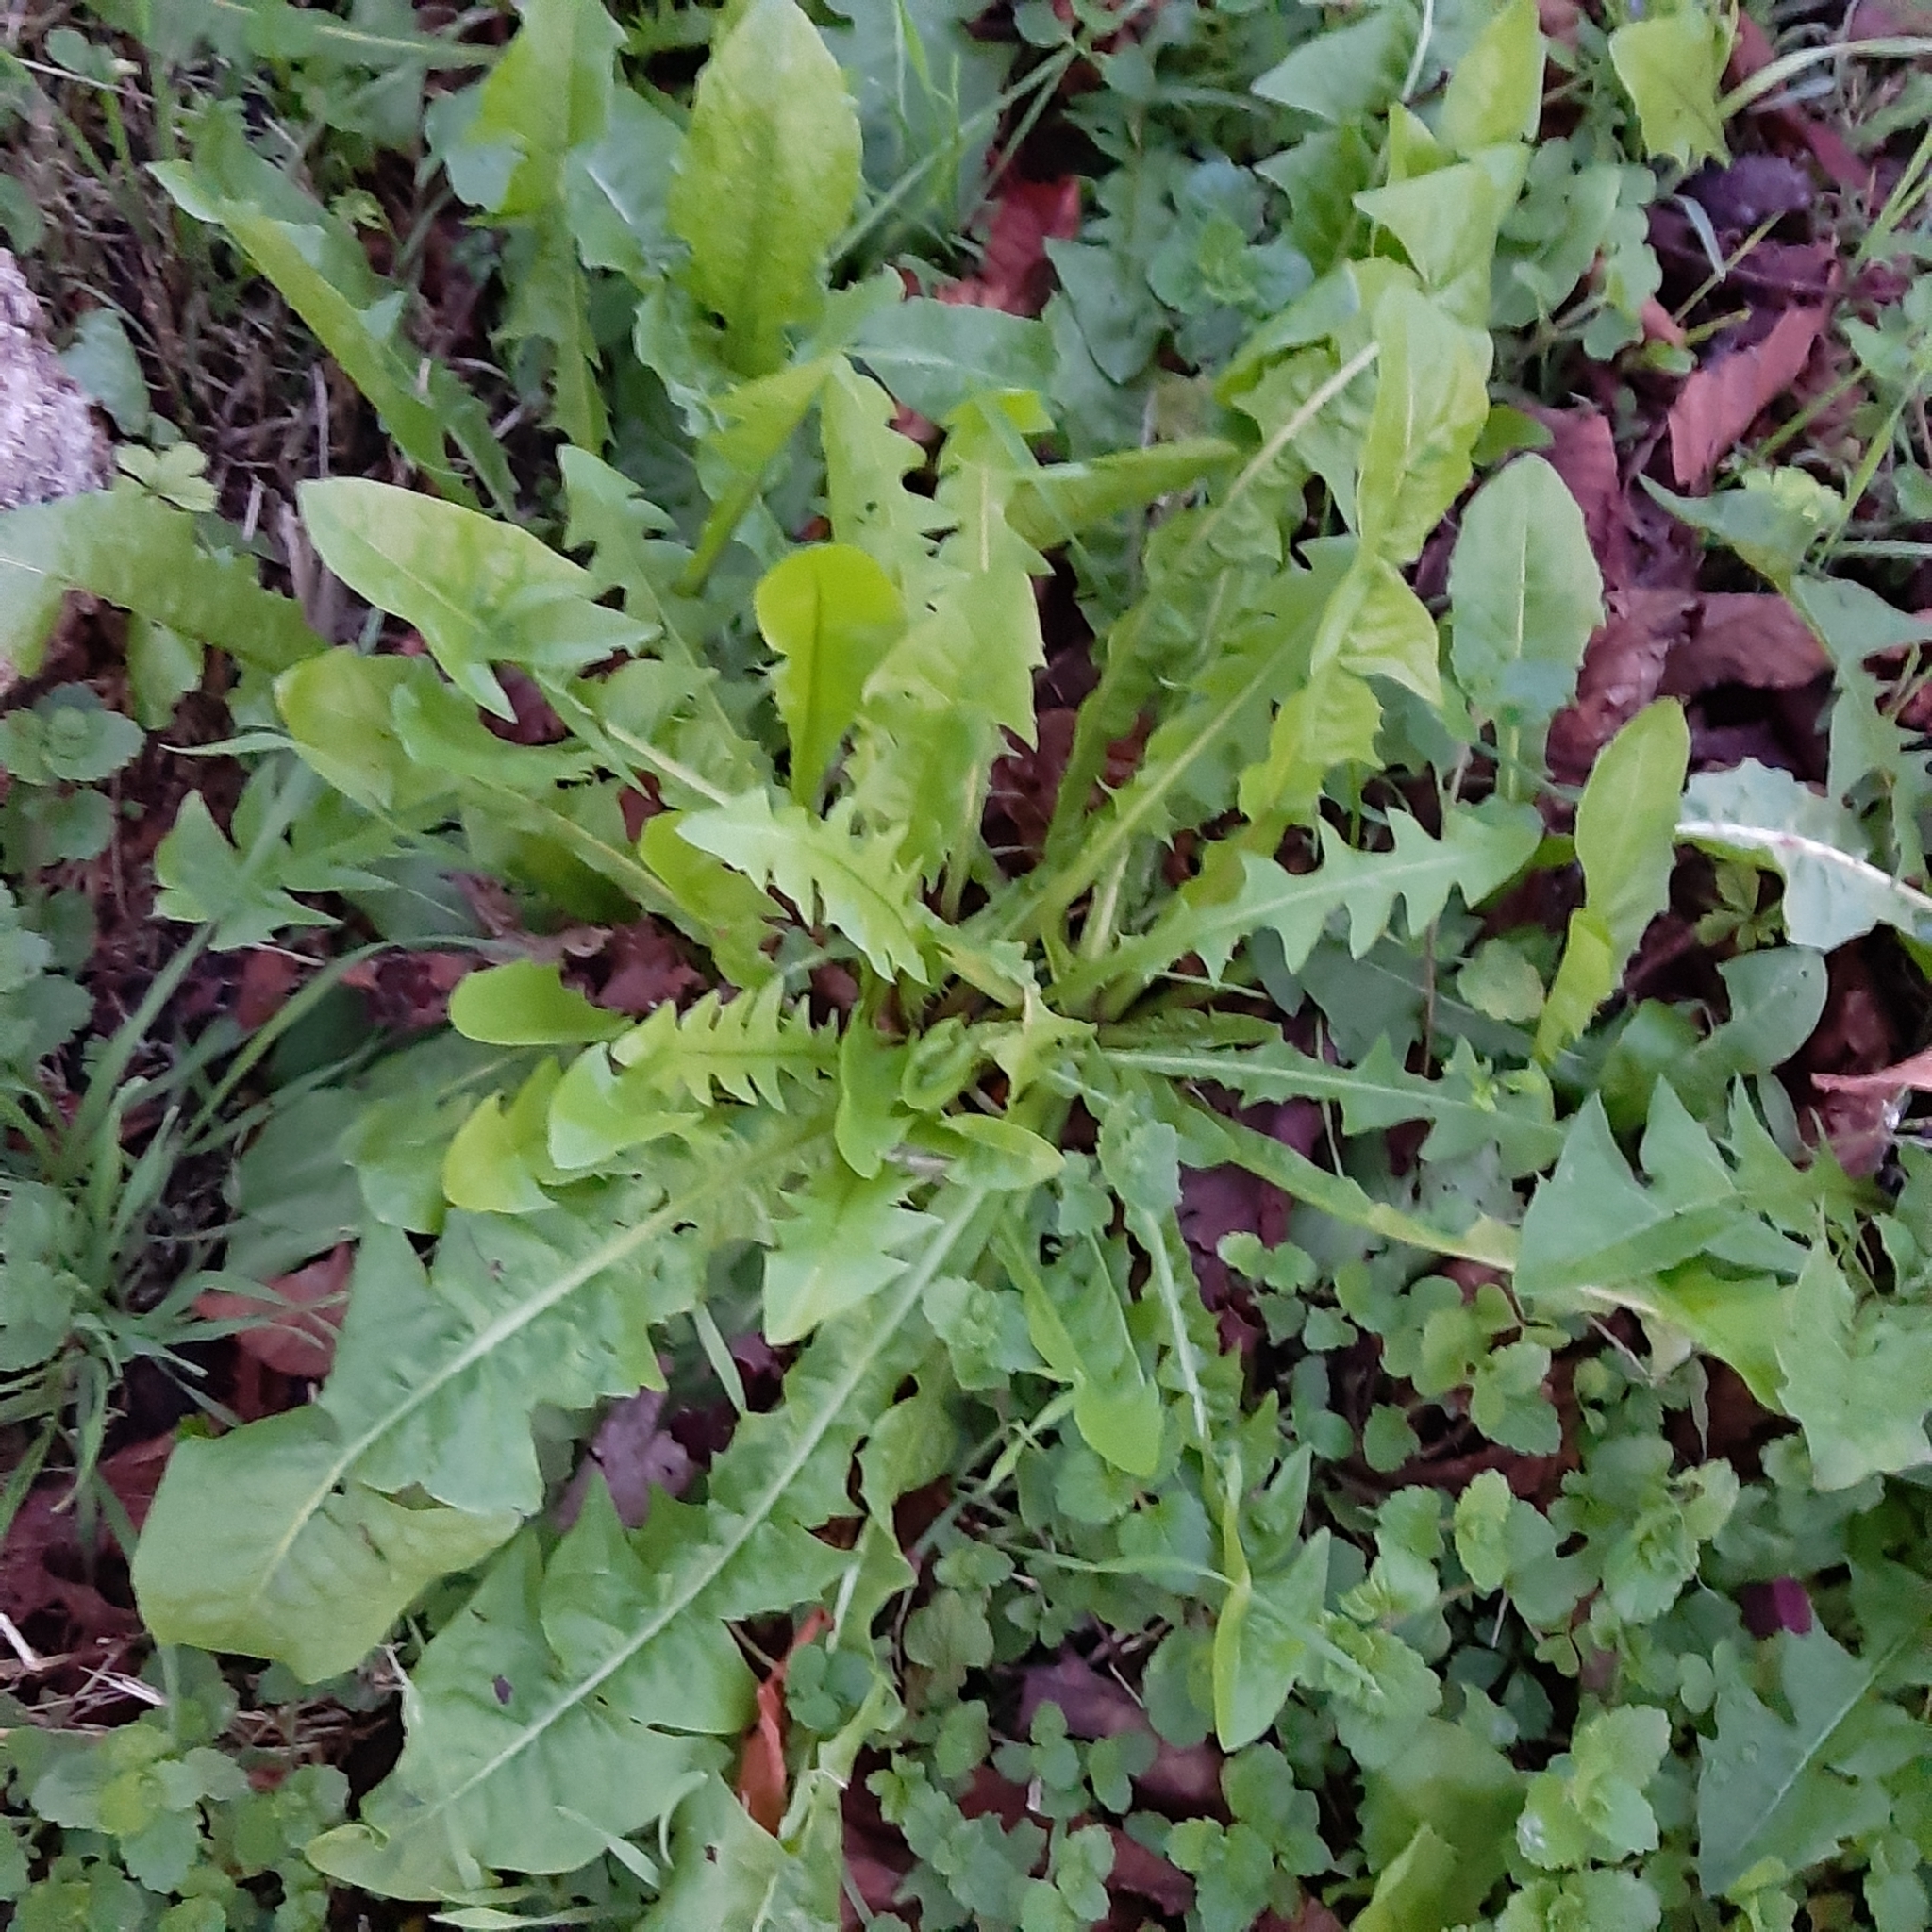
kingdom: Plantae
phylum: Tracheophyta
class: Magnoliopsida
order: Asterales
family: Asteraceae
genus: Taraxacum
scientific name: Taraxacum officinale
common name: Common dandelion
